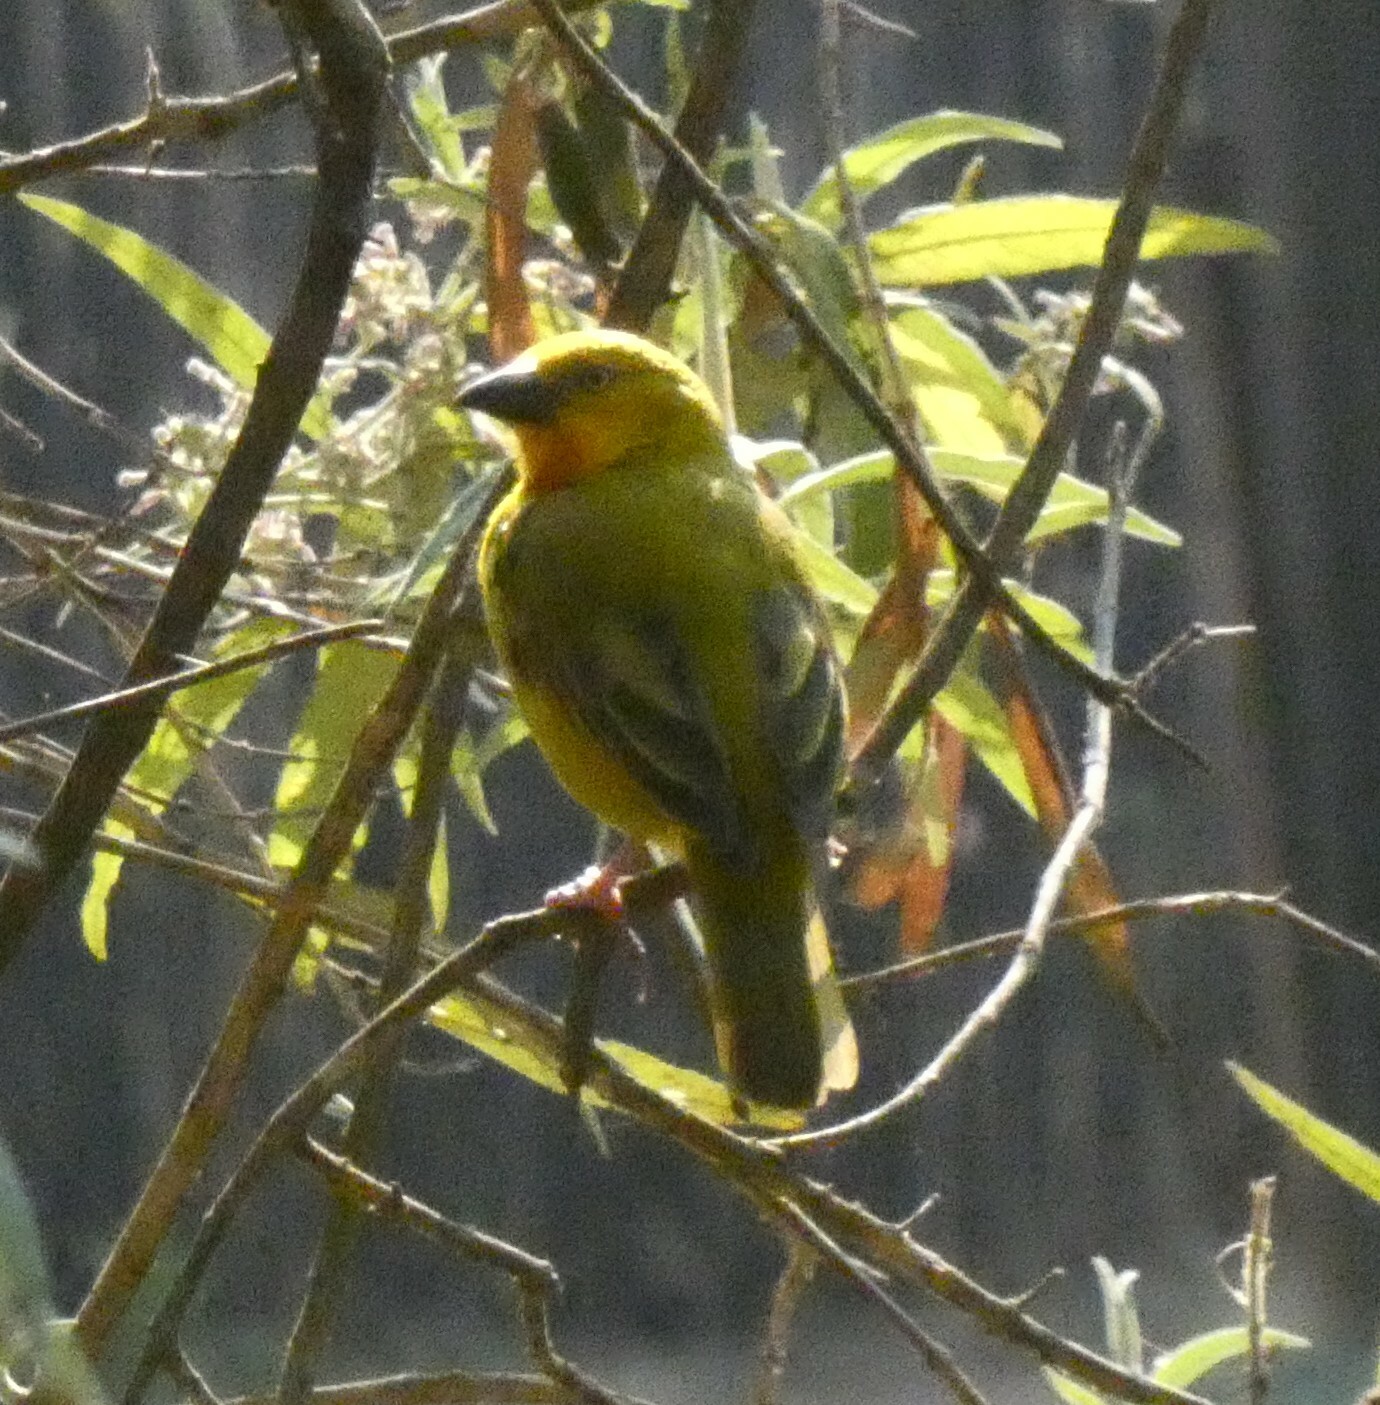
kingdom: Animalia
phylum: Chordata
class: Aves
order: Passeriformes
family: Ploceidae
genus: Ploceus
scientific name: Ploceus xanthops
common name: Holub's golden weaver
